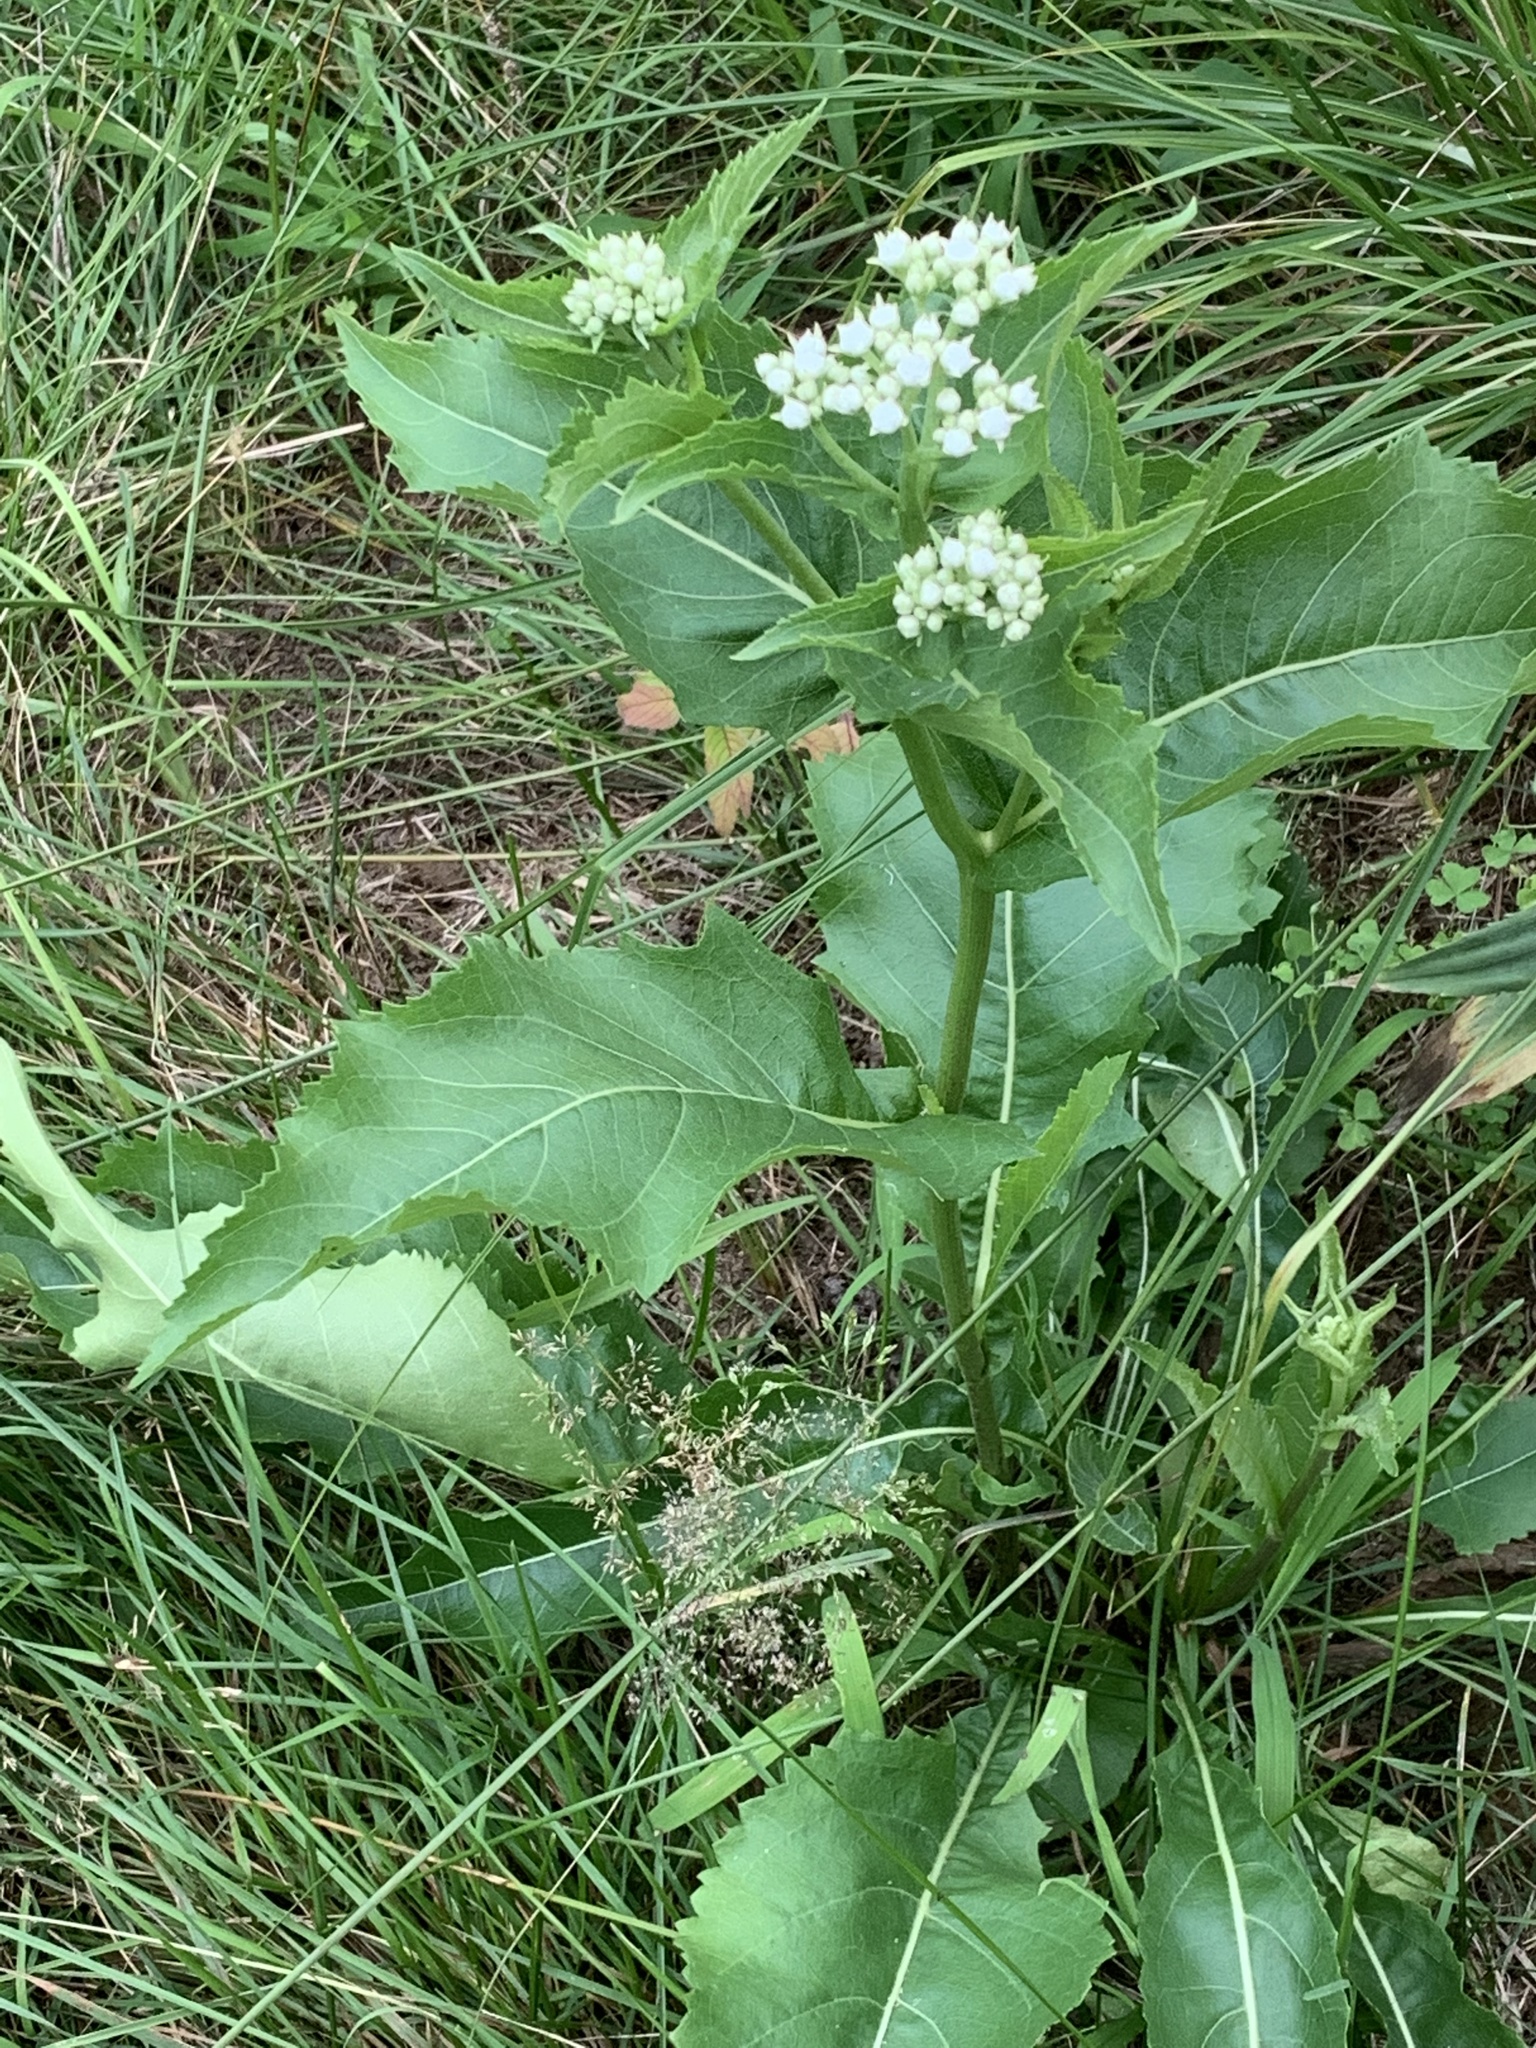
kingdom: Plantae
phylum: Tracheophyta
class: Magnoliopsida
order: Asterales
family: Asteraceae
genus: Parthenium
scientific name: Parthenium integrifolium
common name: American feverfew
